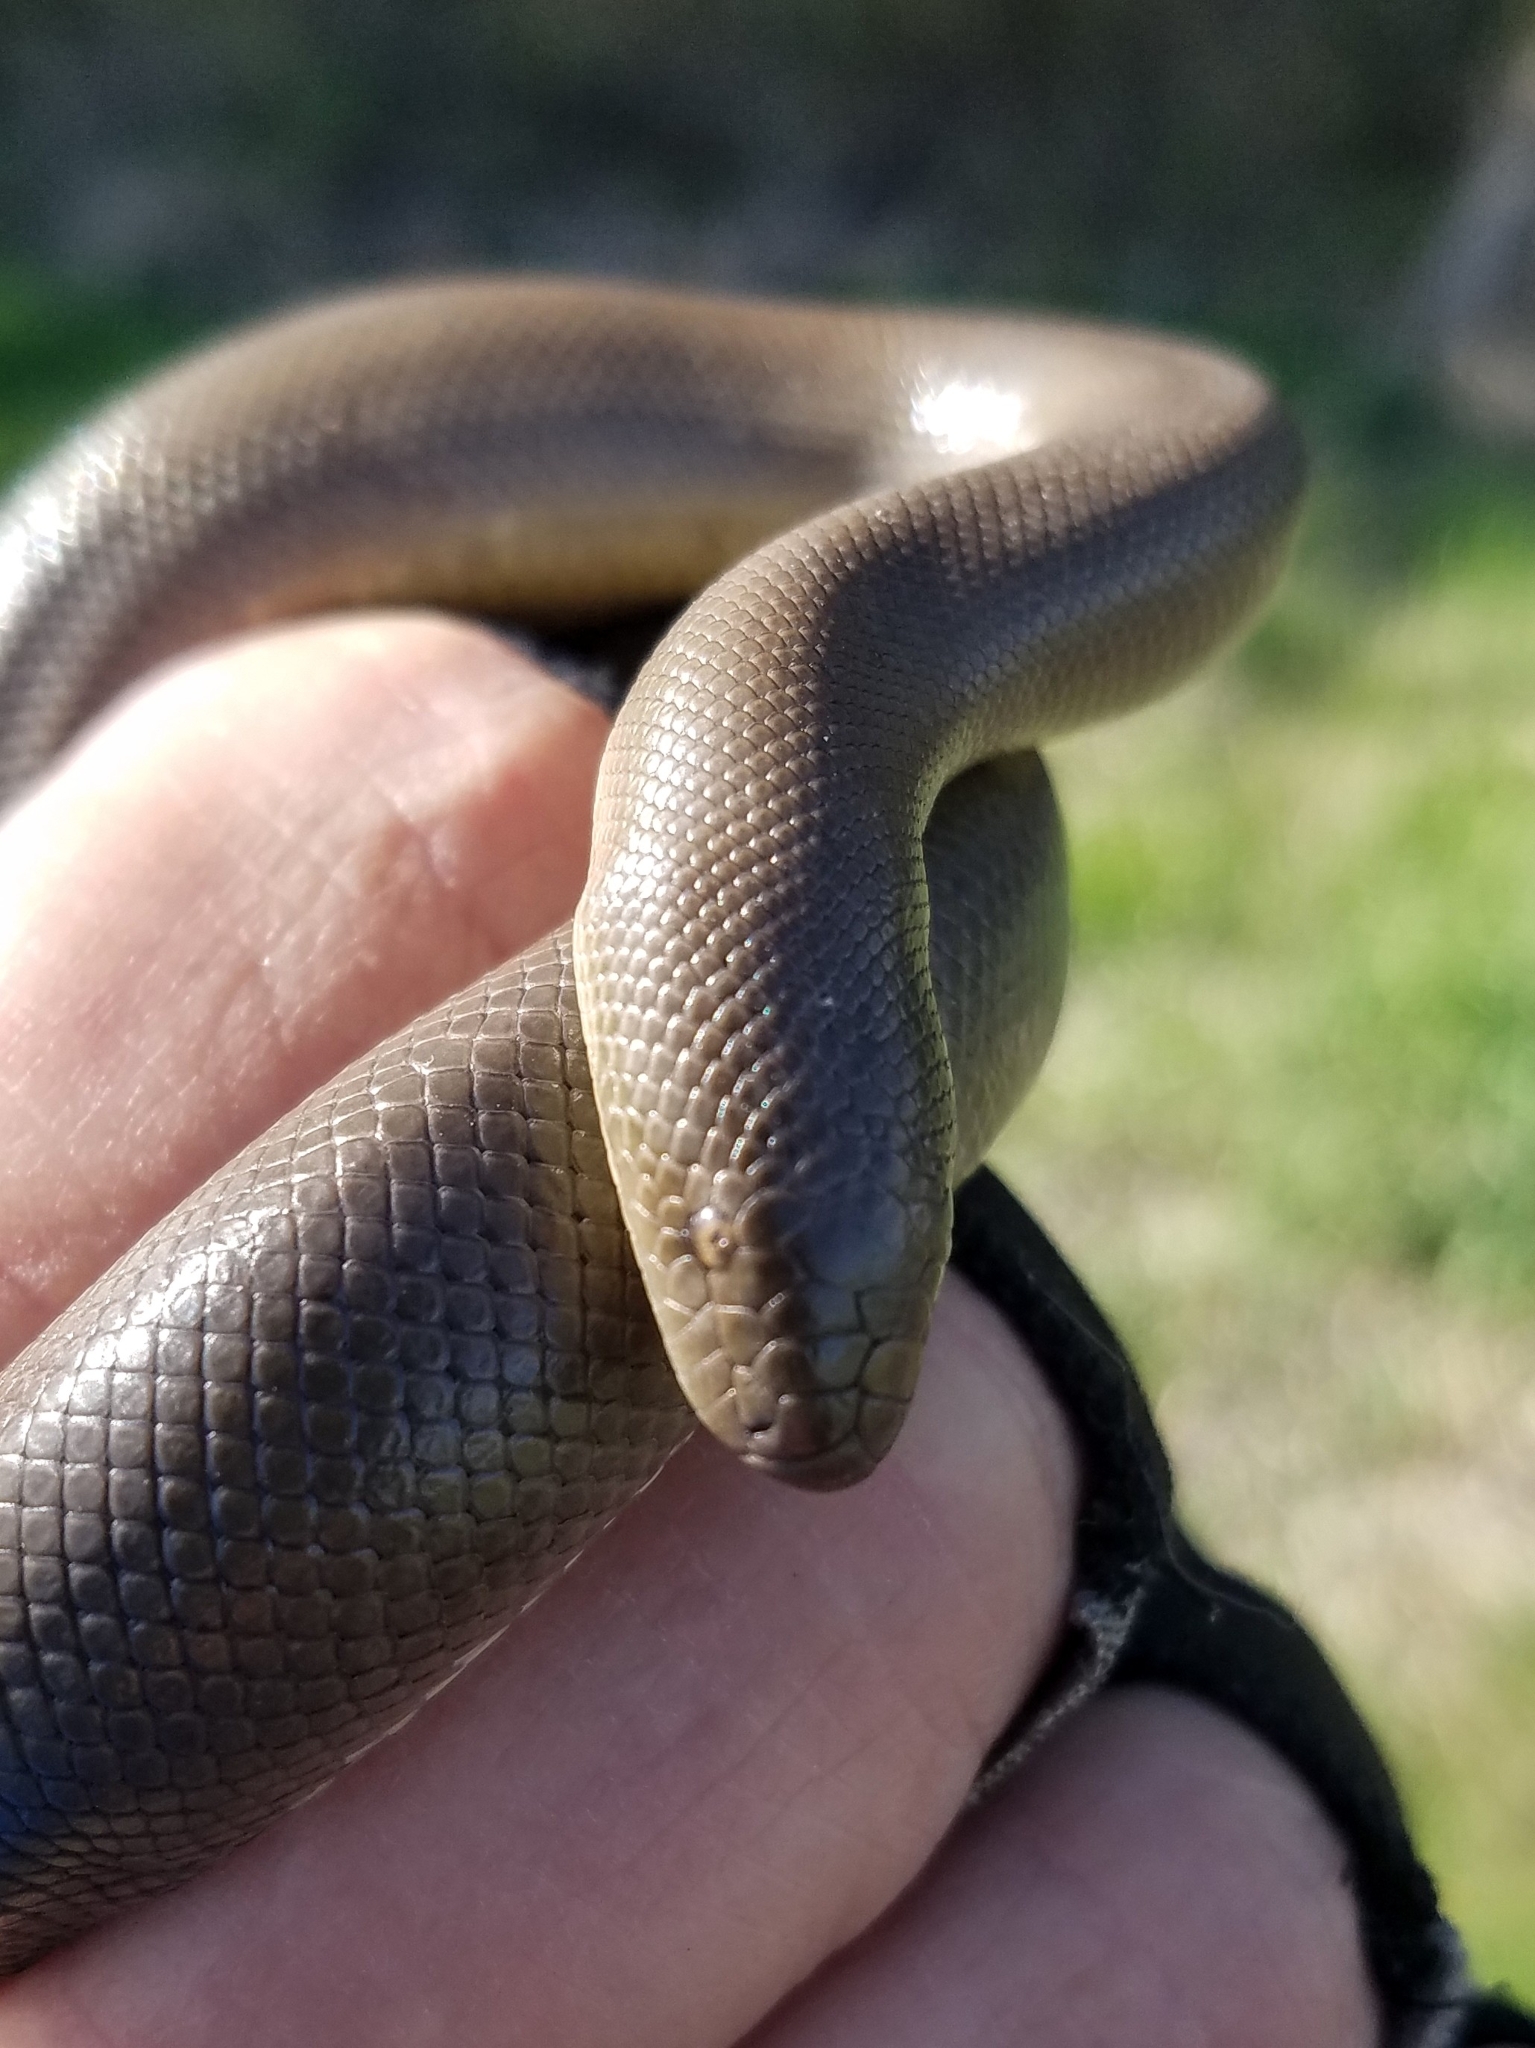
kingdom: Animalia
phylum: Chordata
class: Squamata
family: Boidae
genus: Charina
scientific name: Charina bottae
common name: Northern rubber boa
